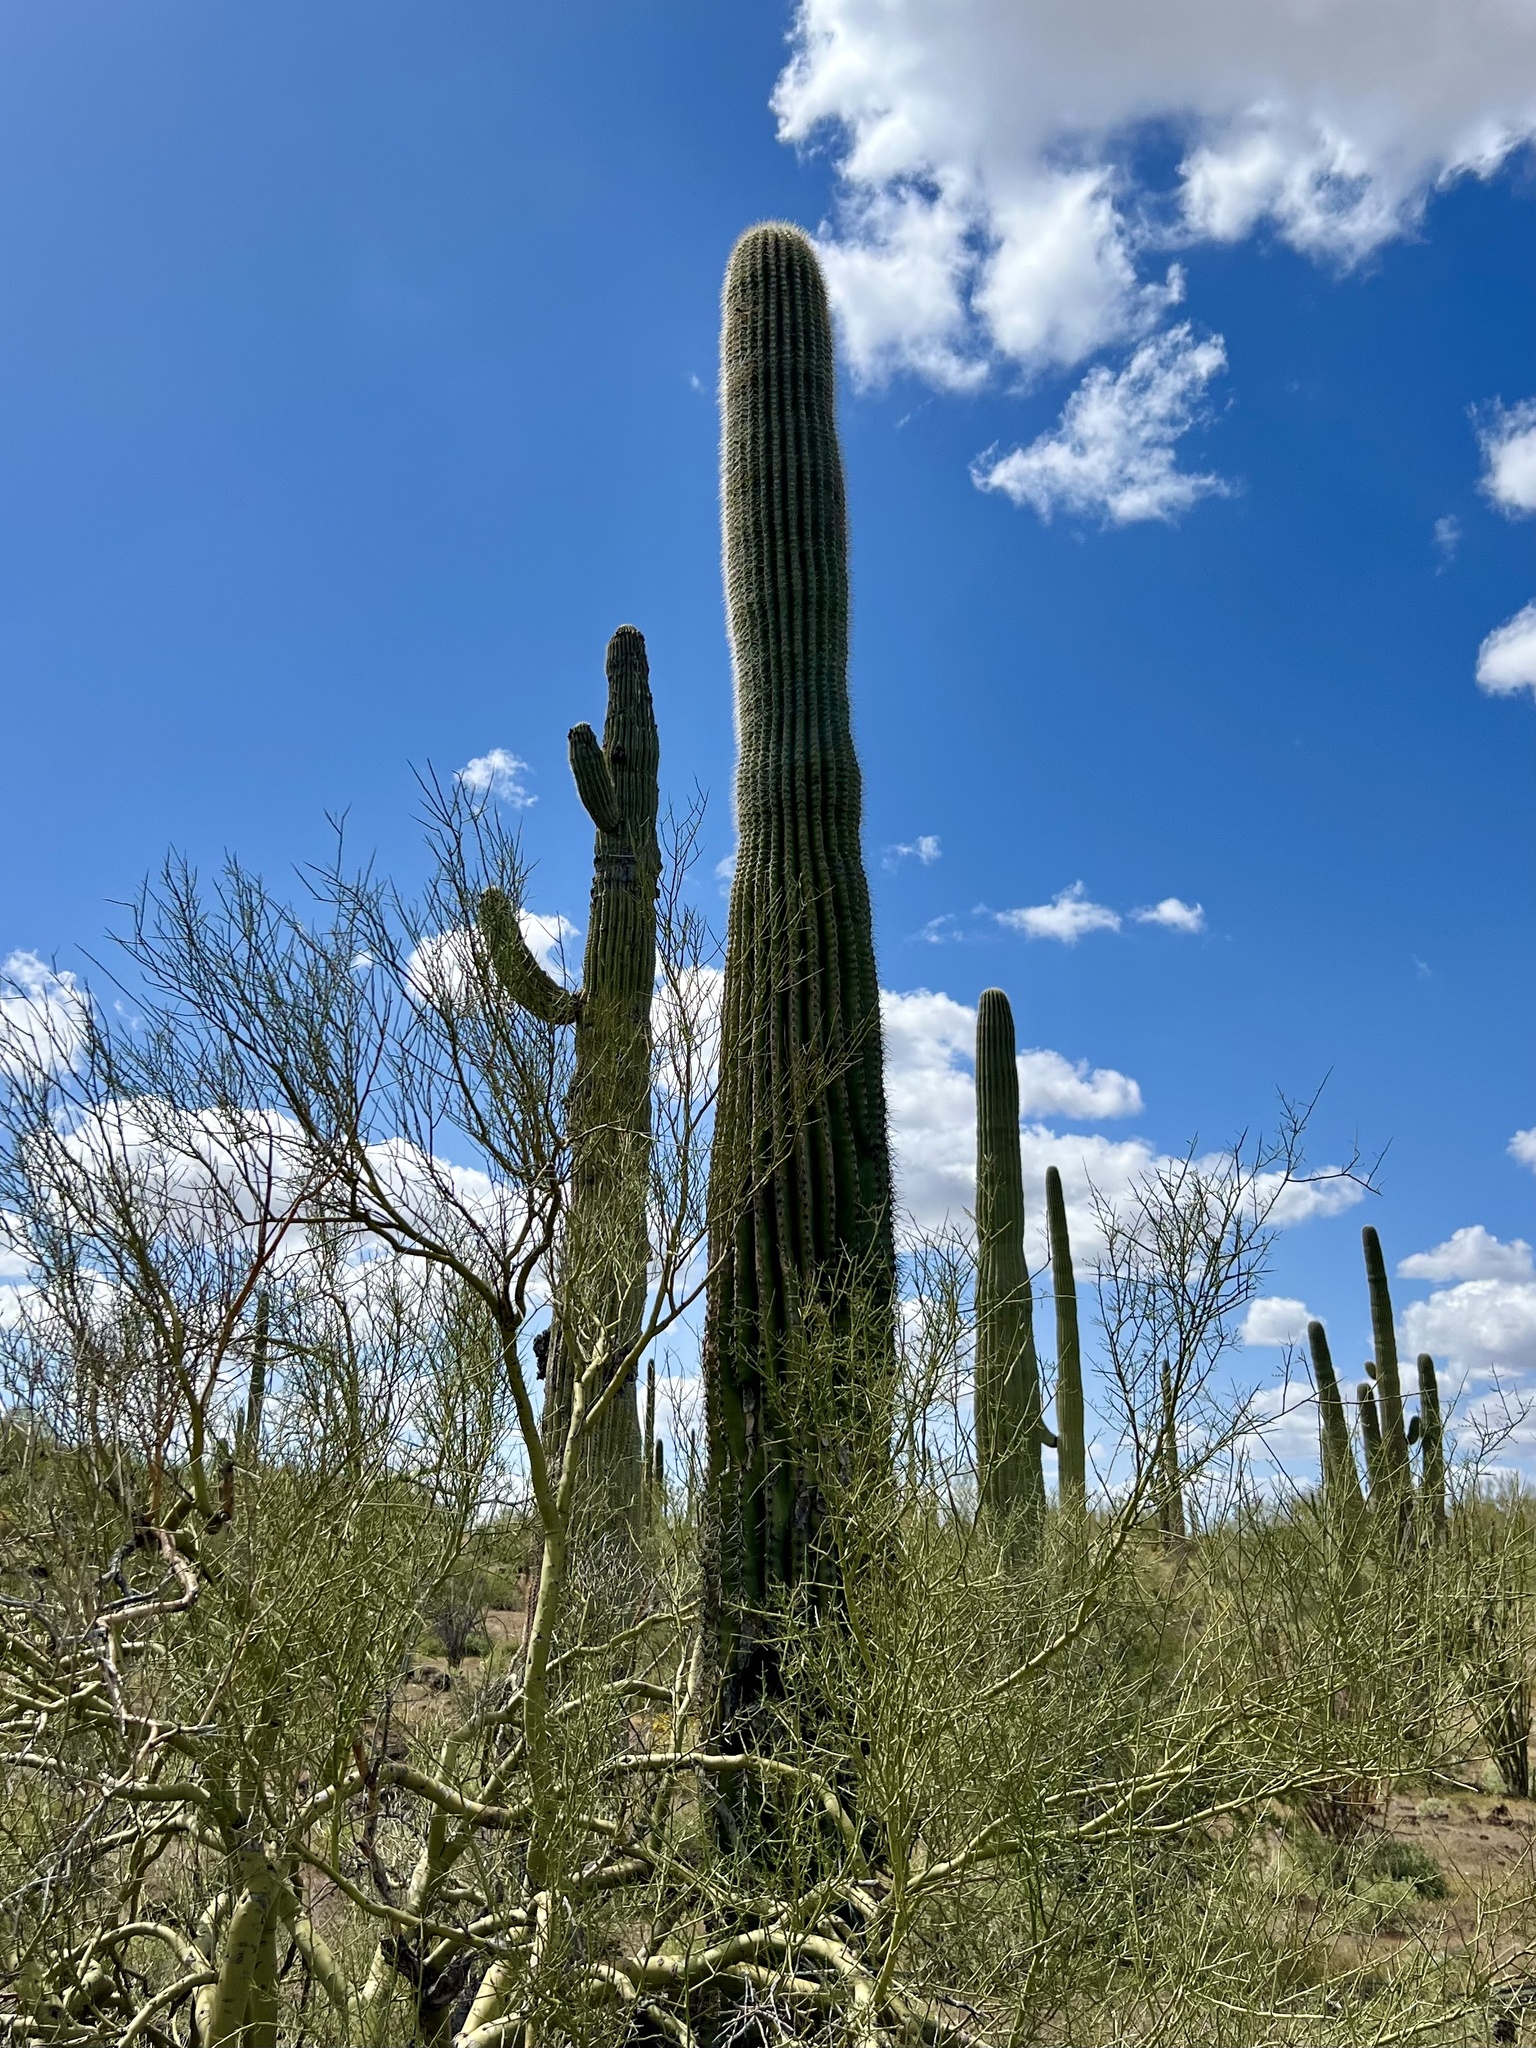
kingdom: Plantae
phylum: Tracheophyta
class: Magnoliopsida
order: Caryophyllales
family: Cactaceae
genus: Carnegiea
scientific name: Carnegiea gigantea
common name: Saguaro
